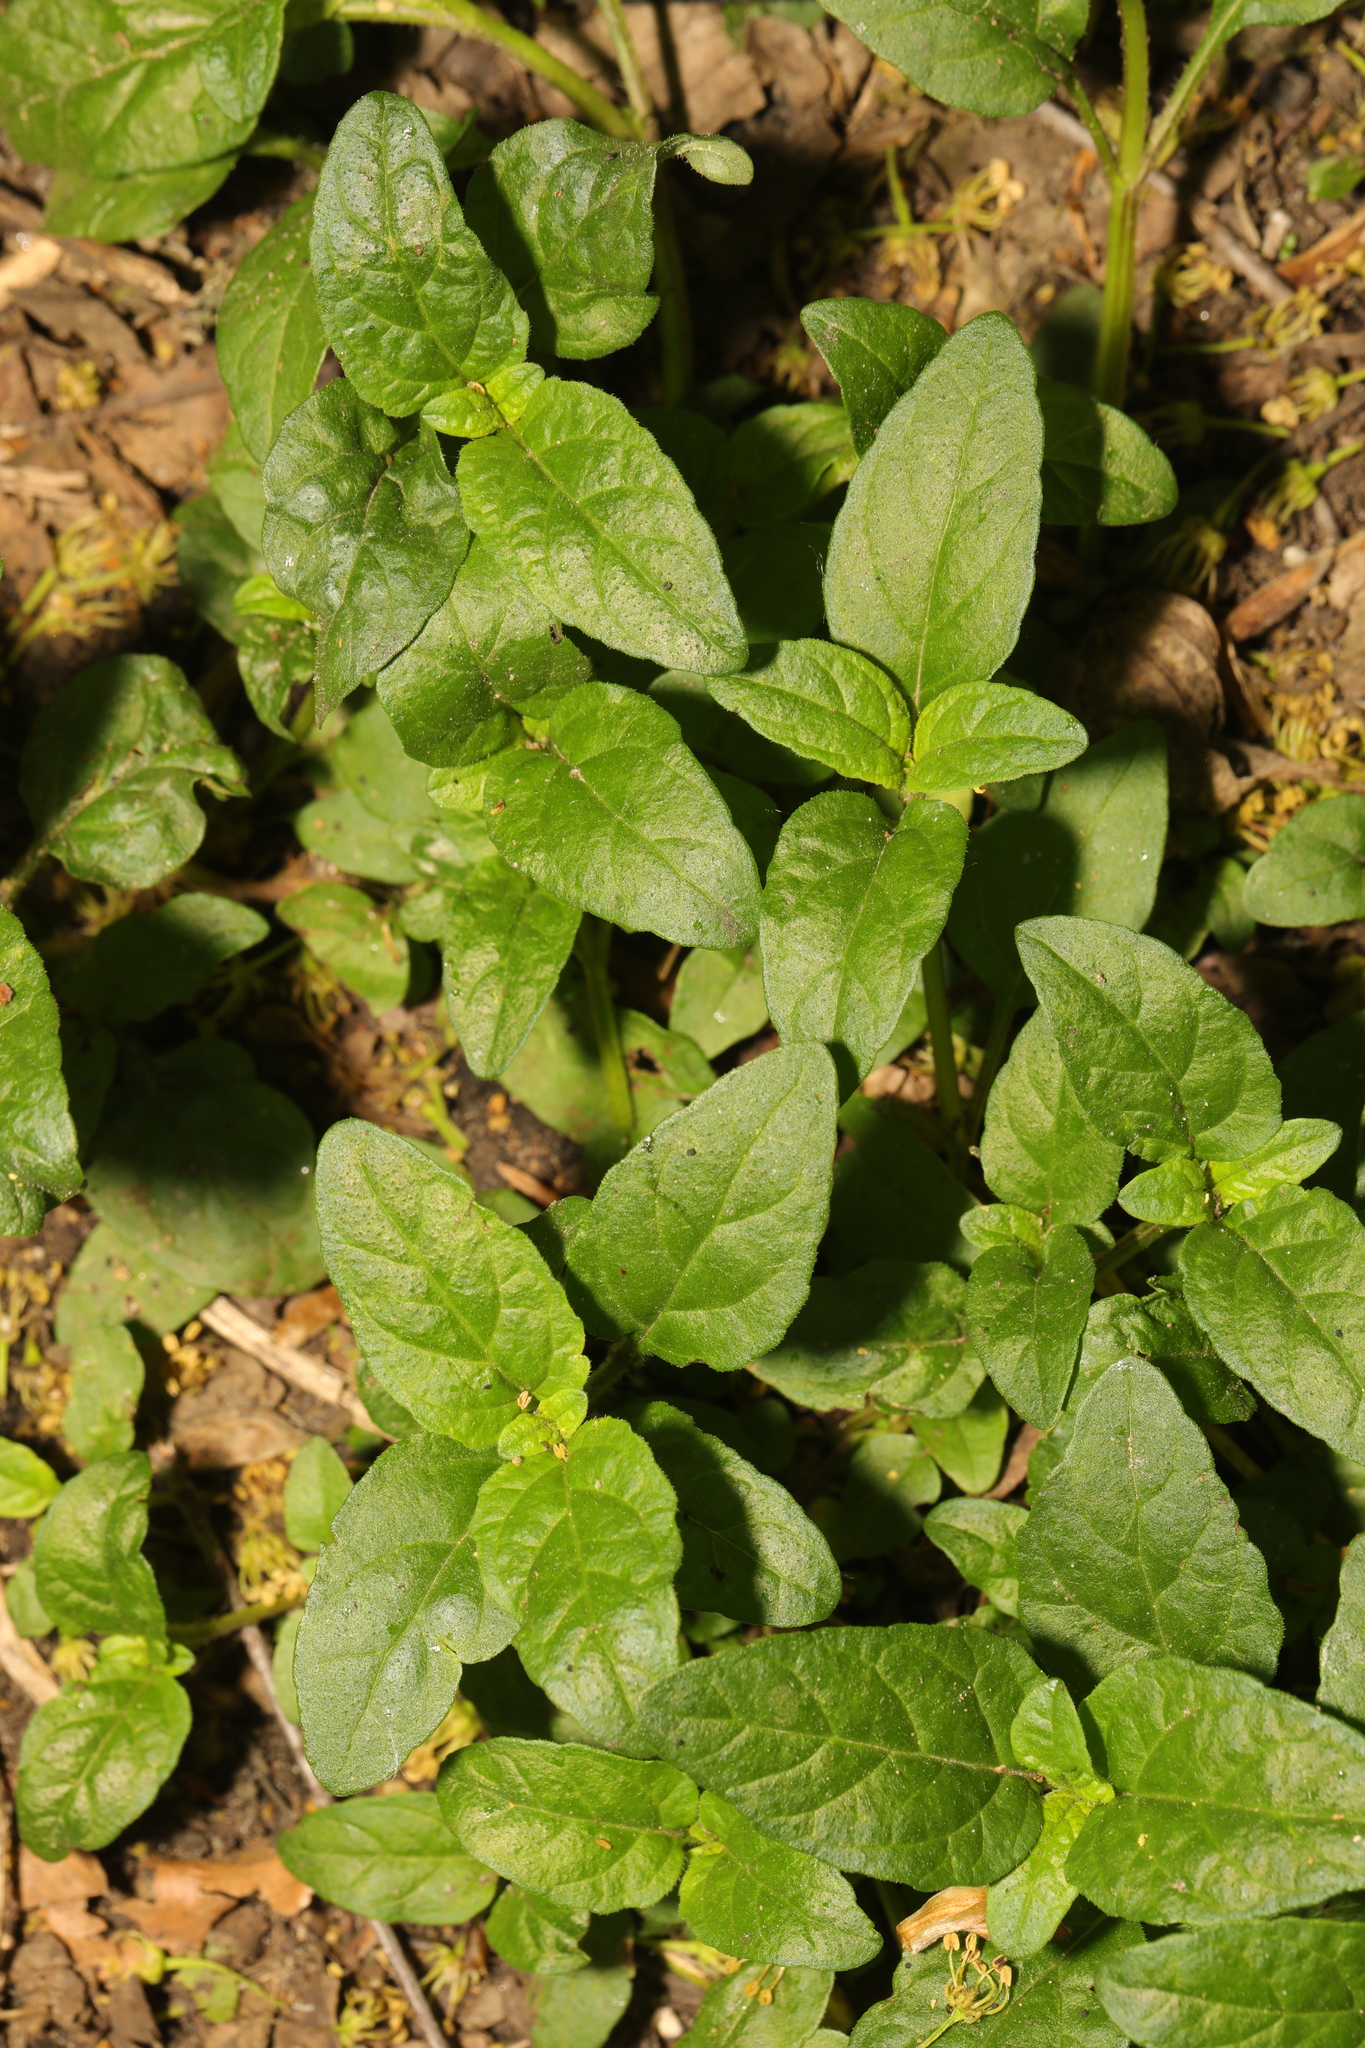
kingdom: Plantae
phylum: Tracheophyta
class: Magnoliopsida
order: Lamiales
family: Lamiaceae
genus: Prunella
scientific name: Prunella vulgaris
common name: Heal-all
